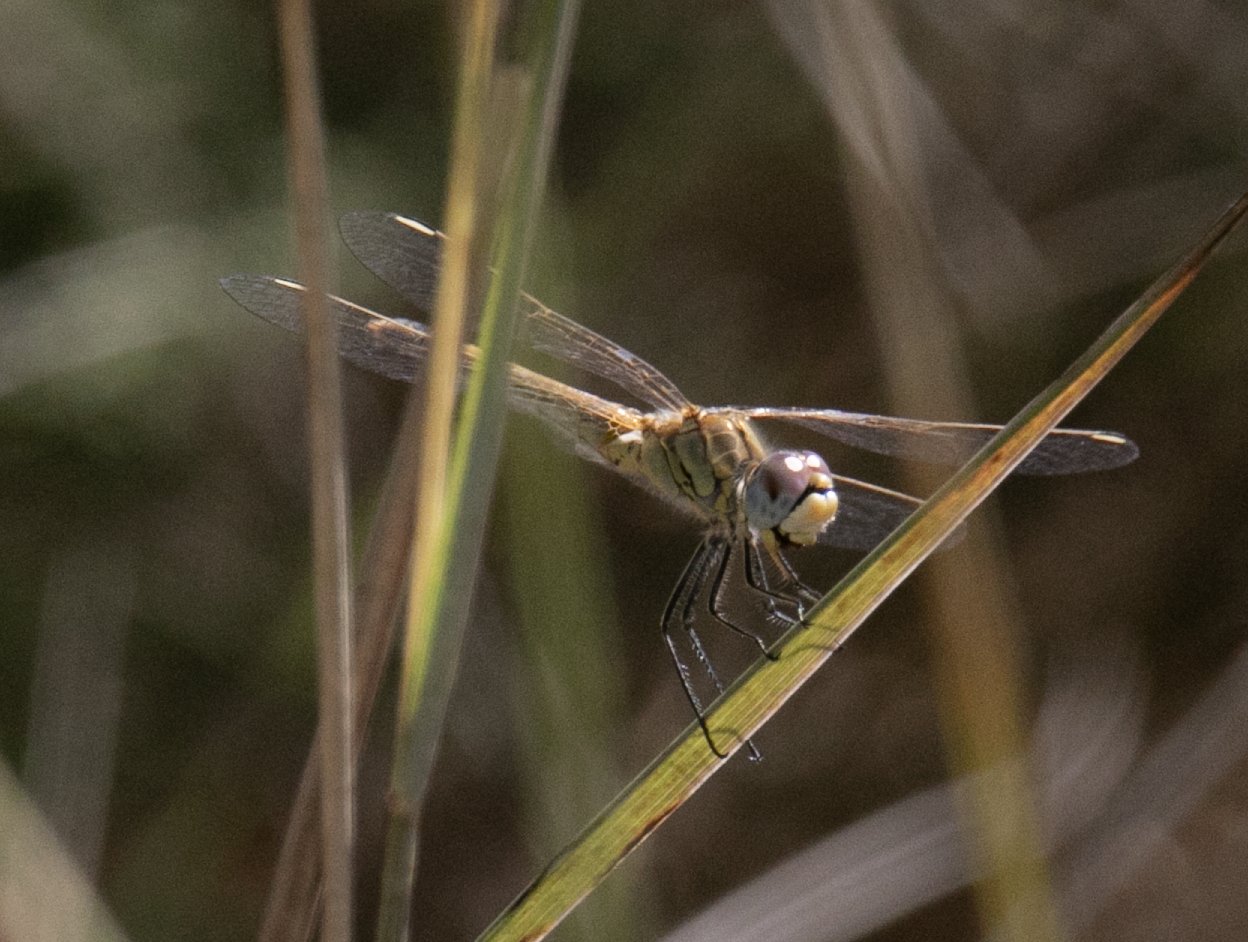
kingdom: Animalia
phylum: Arthropoda
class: Insecta
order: Odonata
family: Libellulidae
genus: Sympetrum
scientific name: Sympetrum fonscolombii
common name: Red-veined darter
